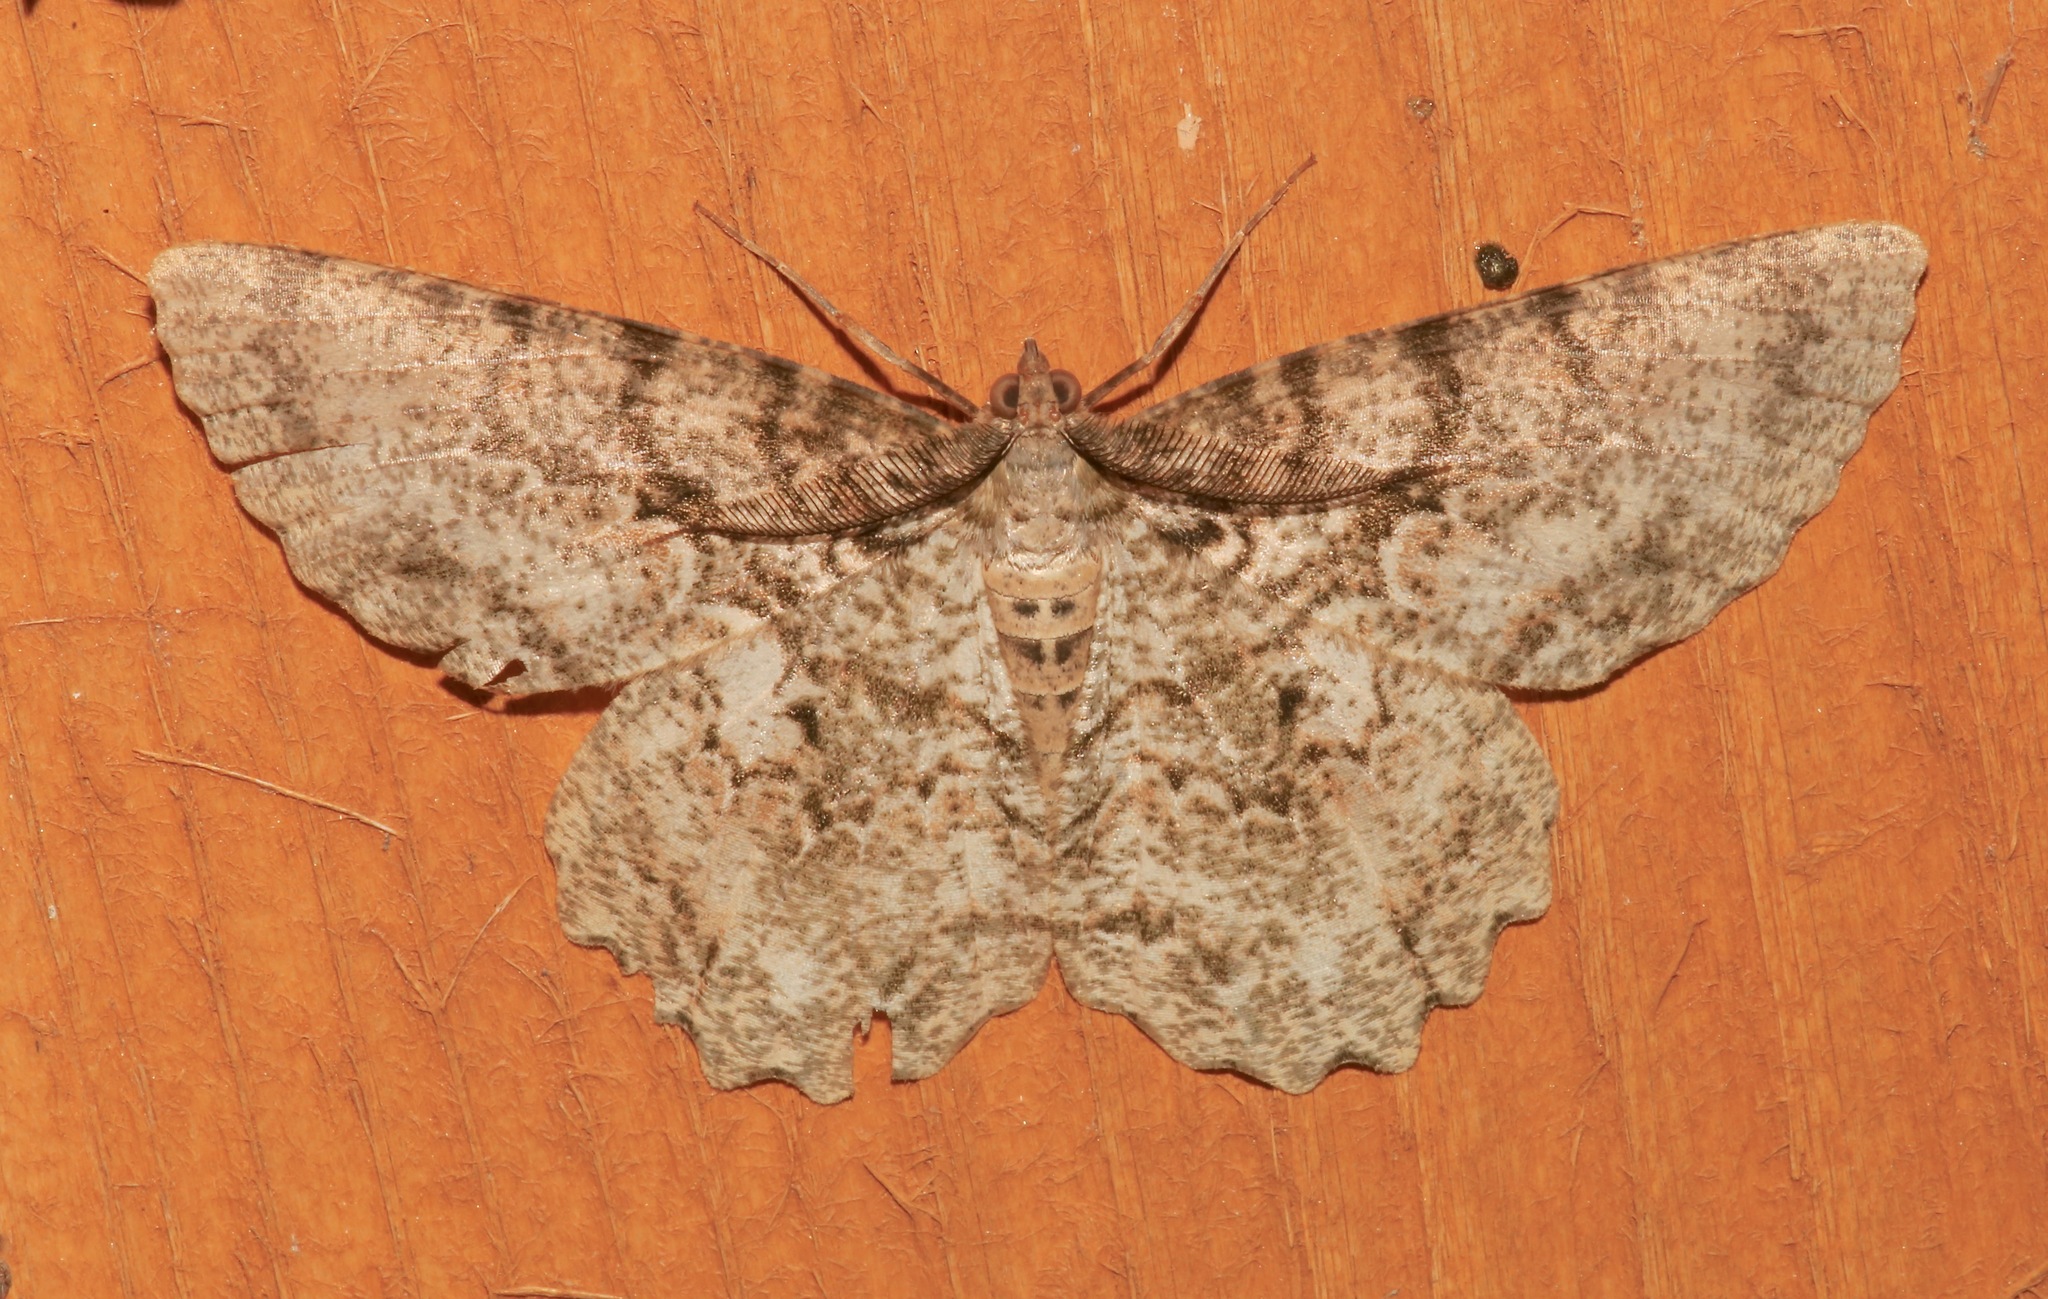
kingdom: Animalia
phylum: Arthropoda
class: Insecta
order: Lepidoptera
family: Geometridae
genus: Epimecis
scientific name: Epimecis hortaria
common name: Tulip-tree beauty
